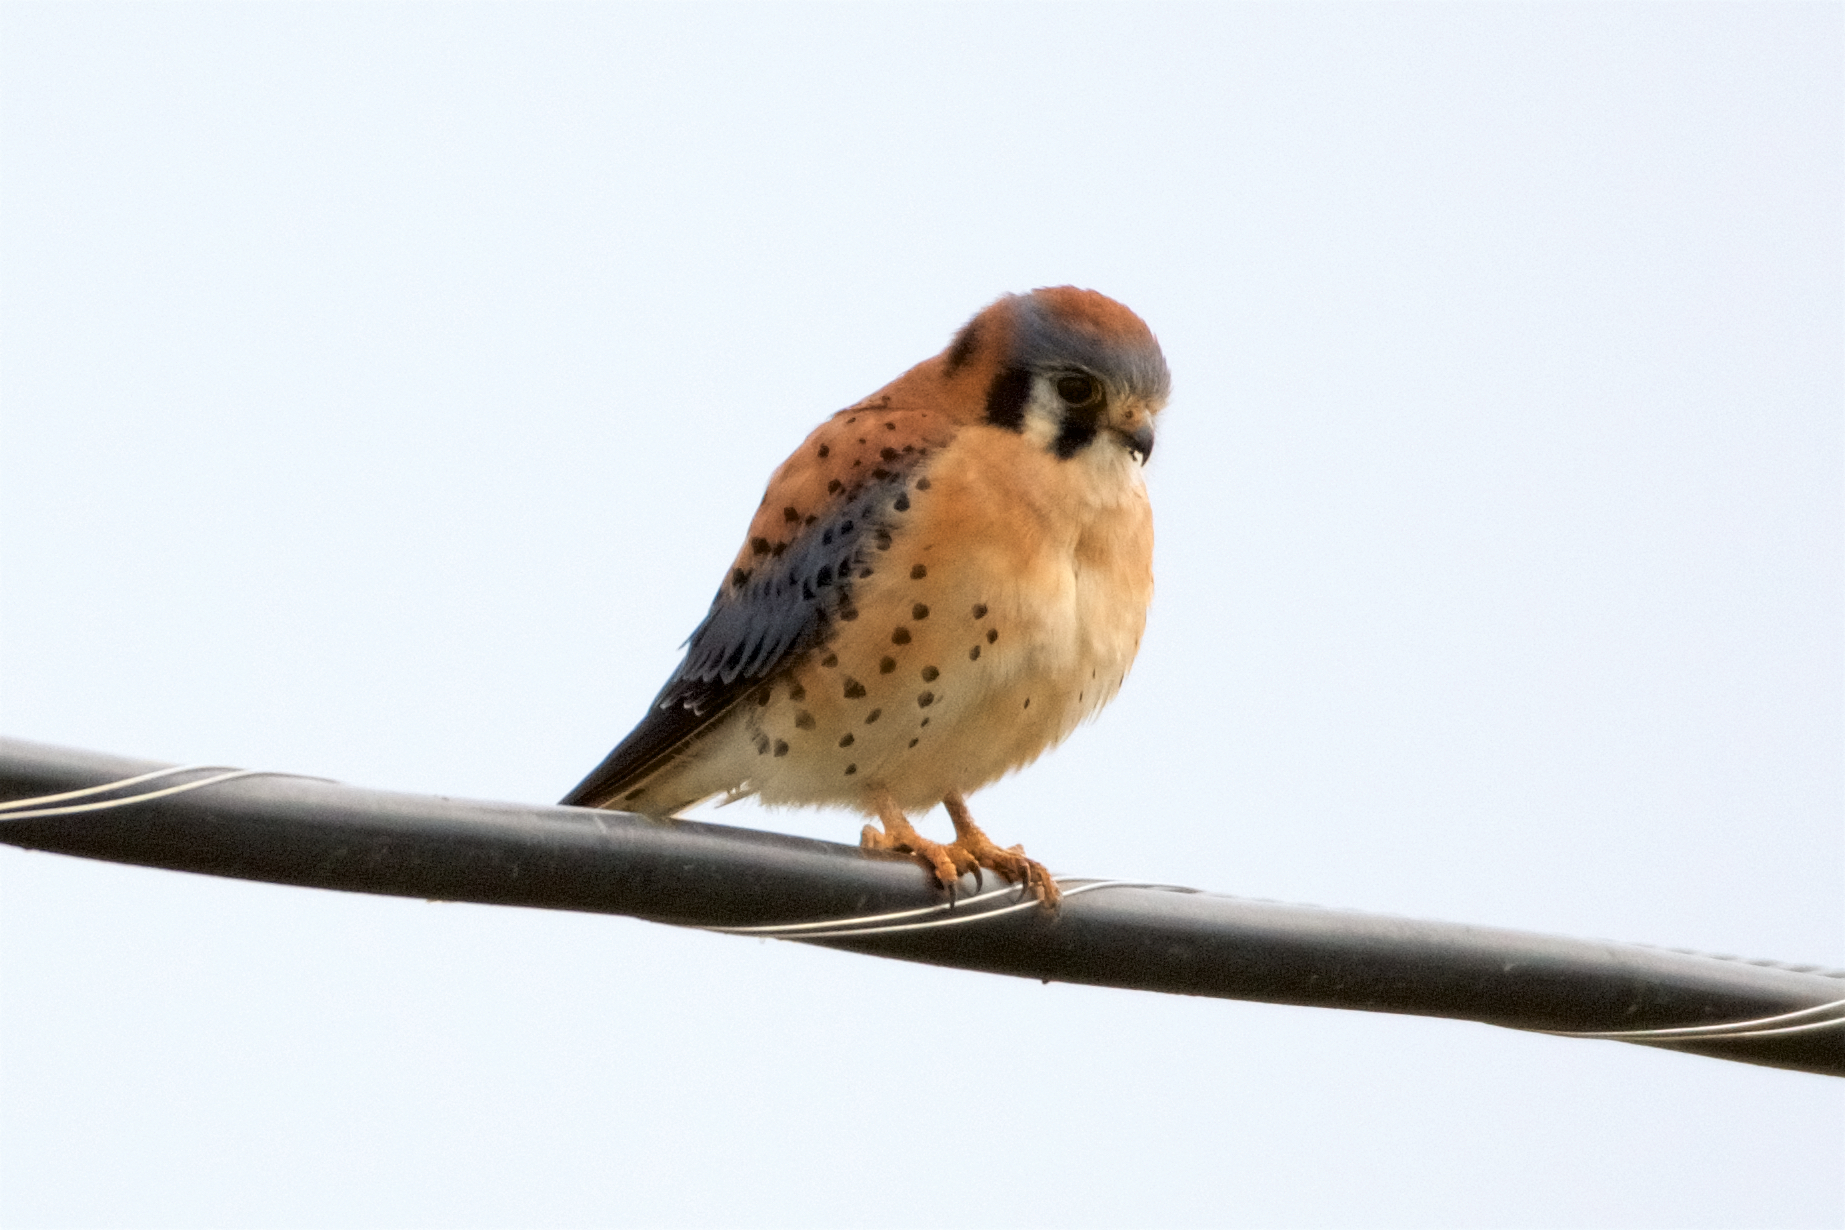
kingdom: Animalia
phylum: Chordata
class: Aves
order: Falconiformes
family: Falconidae
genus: Falco
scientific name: Falco sparverius
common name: American kestrel
